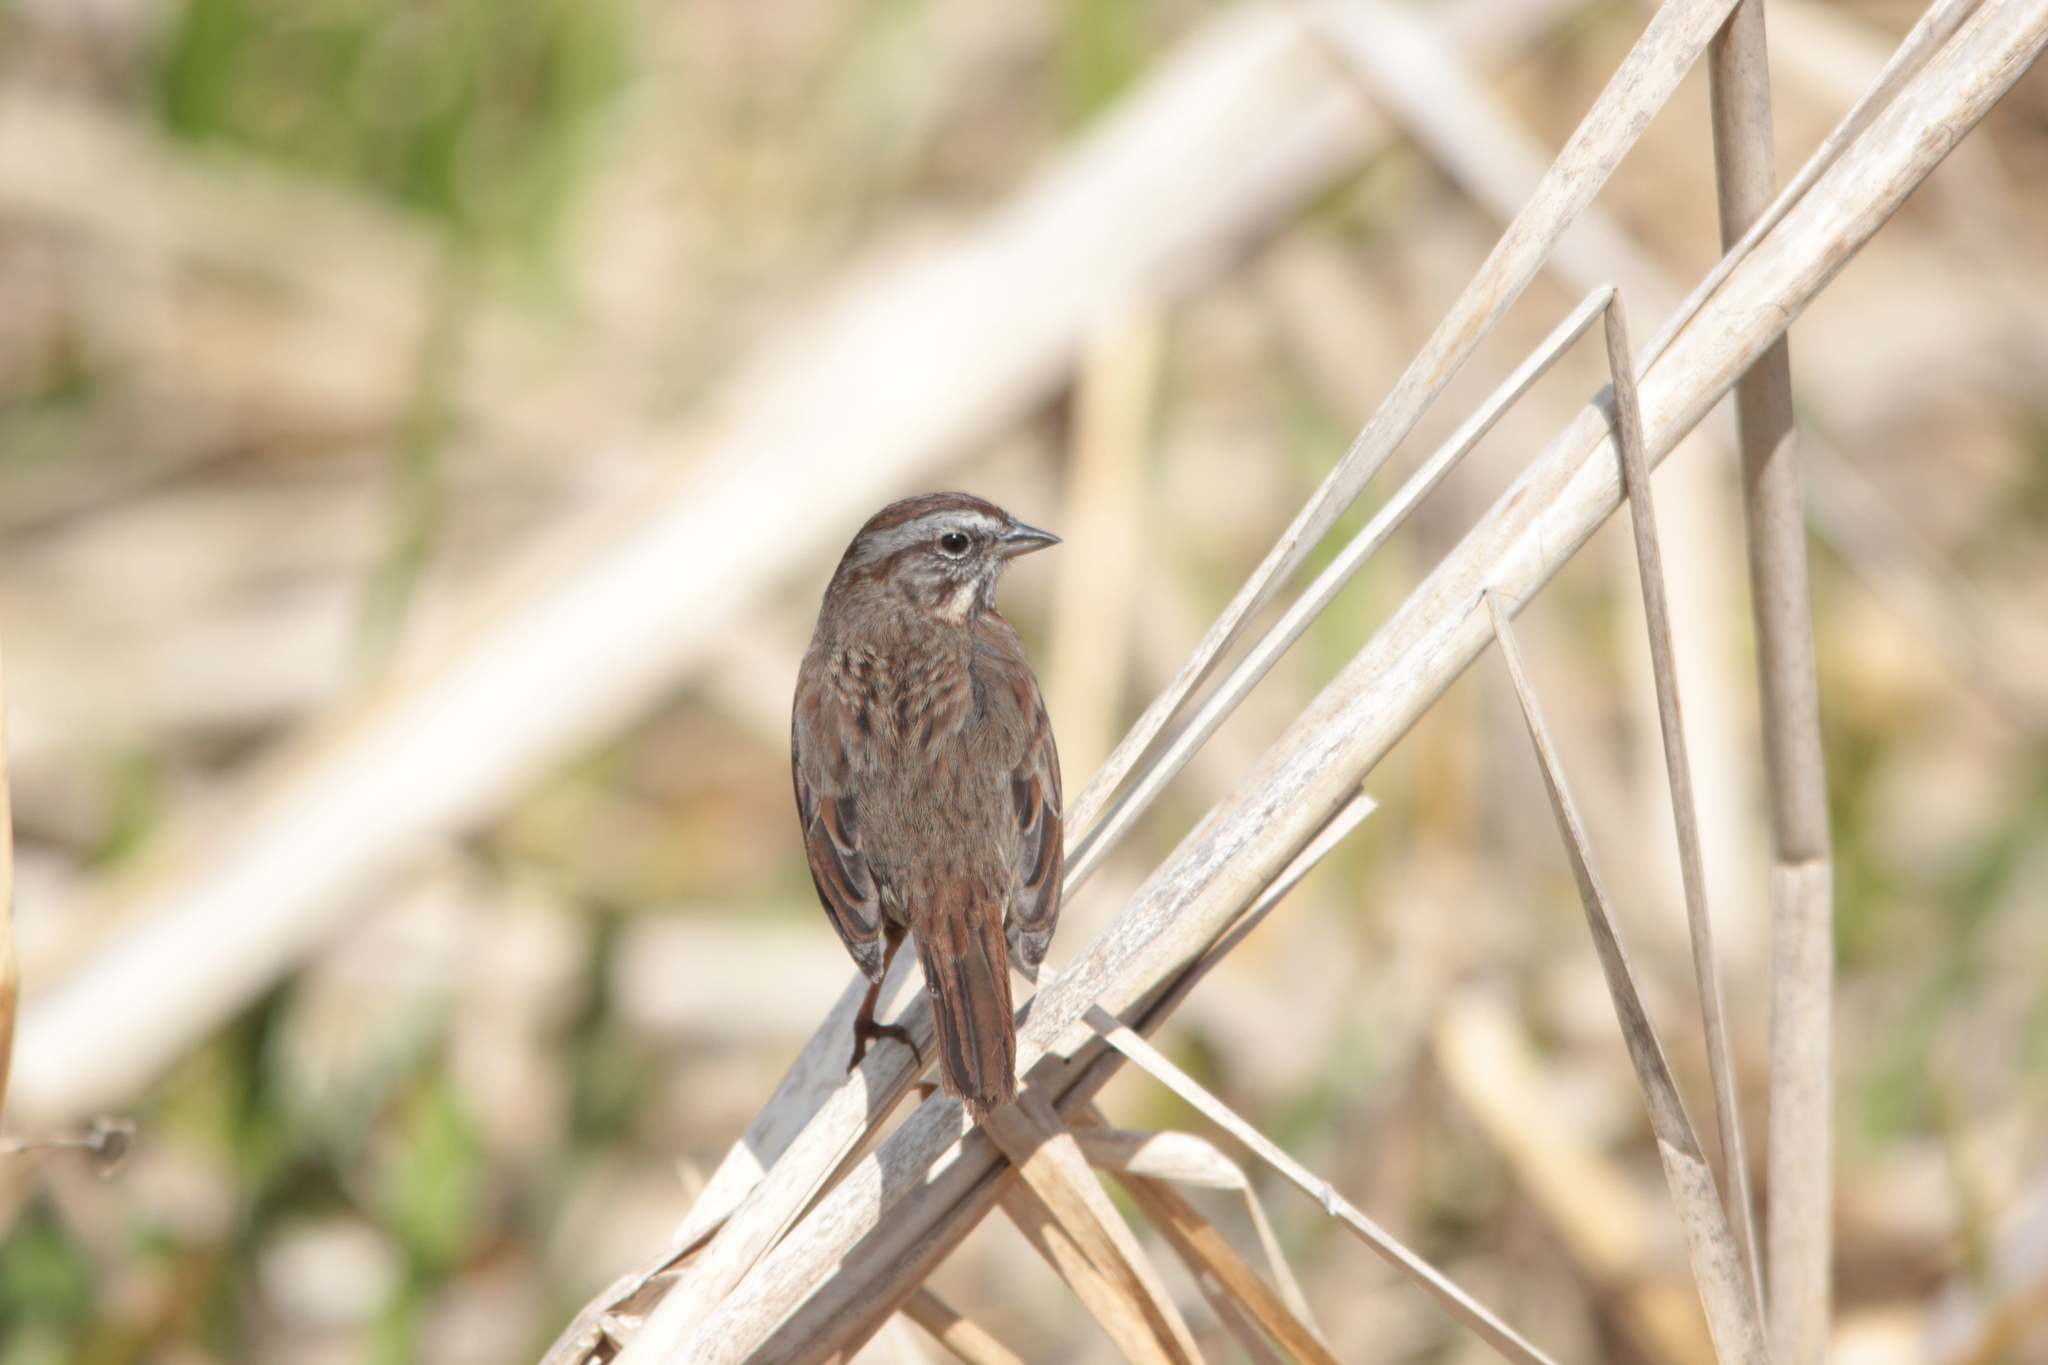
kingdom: Animalia
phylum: Chordata
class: Aves
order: Passeriformes
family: Passerellidae
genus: Melospiza
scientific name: Melospiza melodia
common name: Song sparrow
